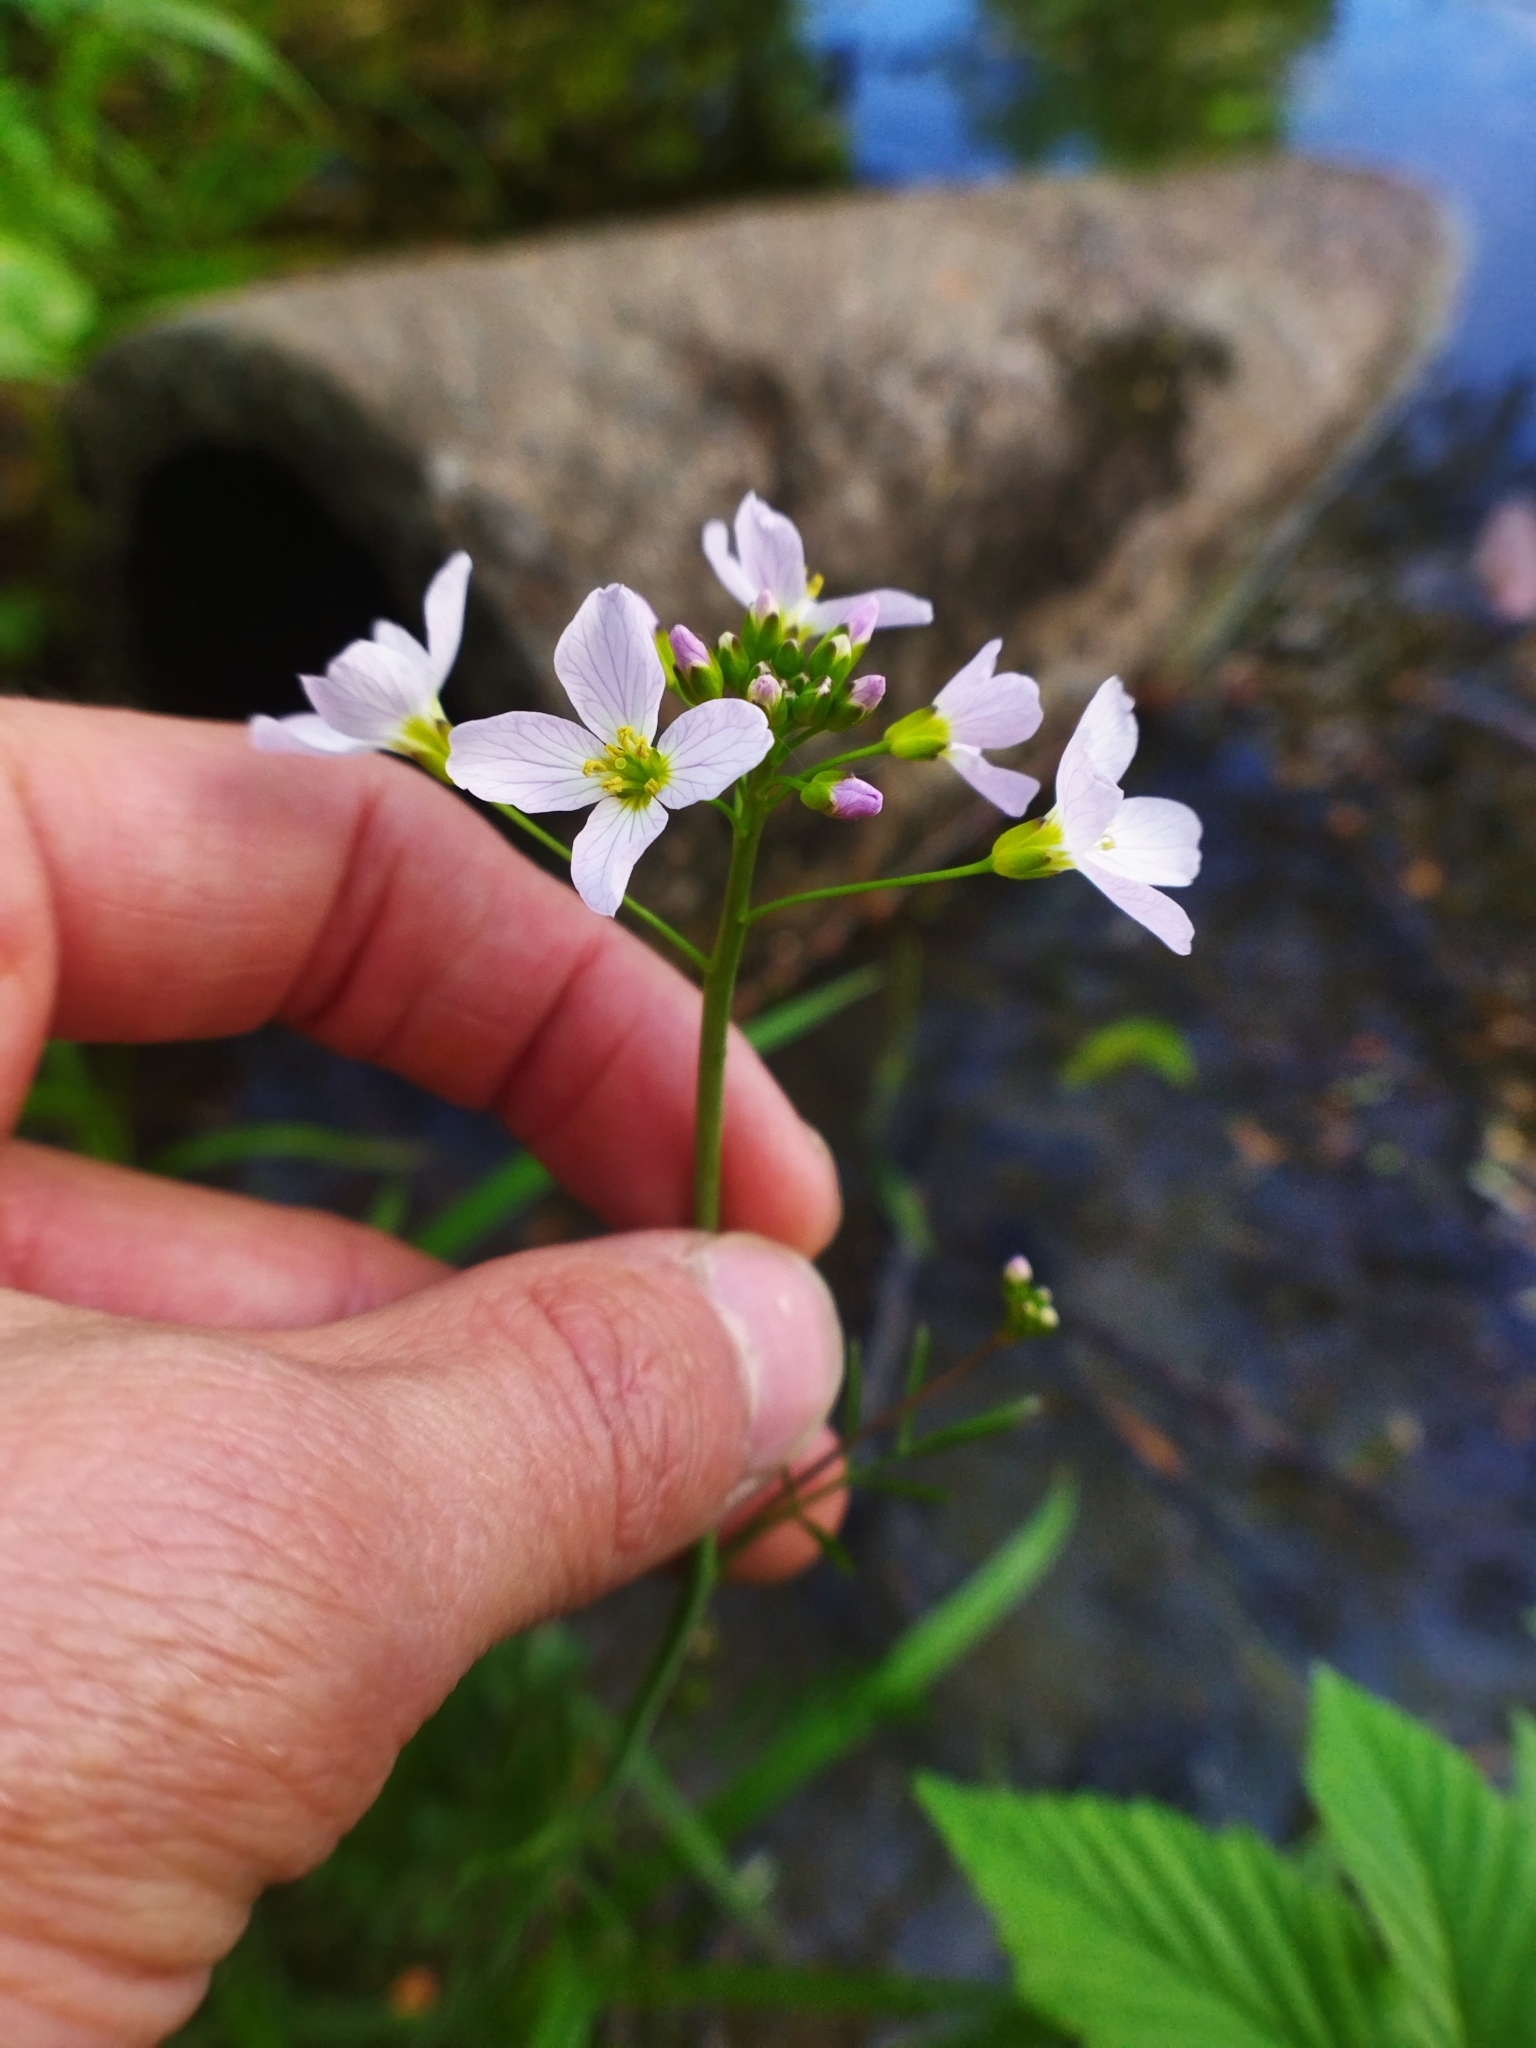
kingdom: Plantae
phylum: Tracheophyta
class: Magnoliopsida
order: Brassicales
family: Brassicaceae
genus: Cardamine
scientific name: Cardamine pratensis
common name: Cuckoo flower
